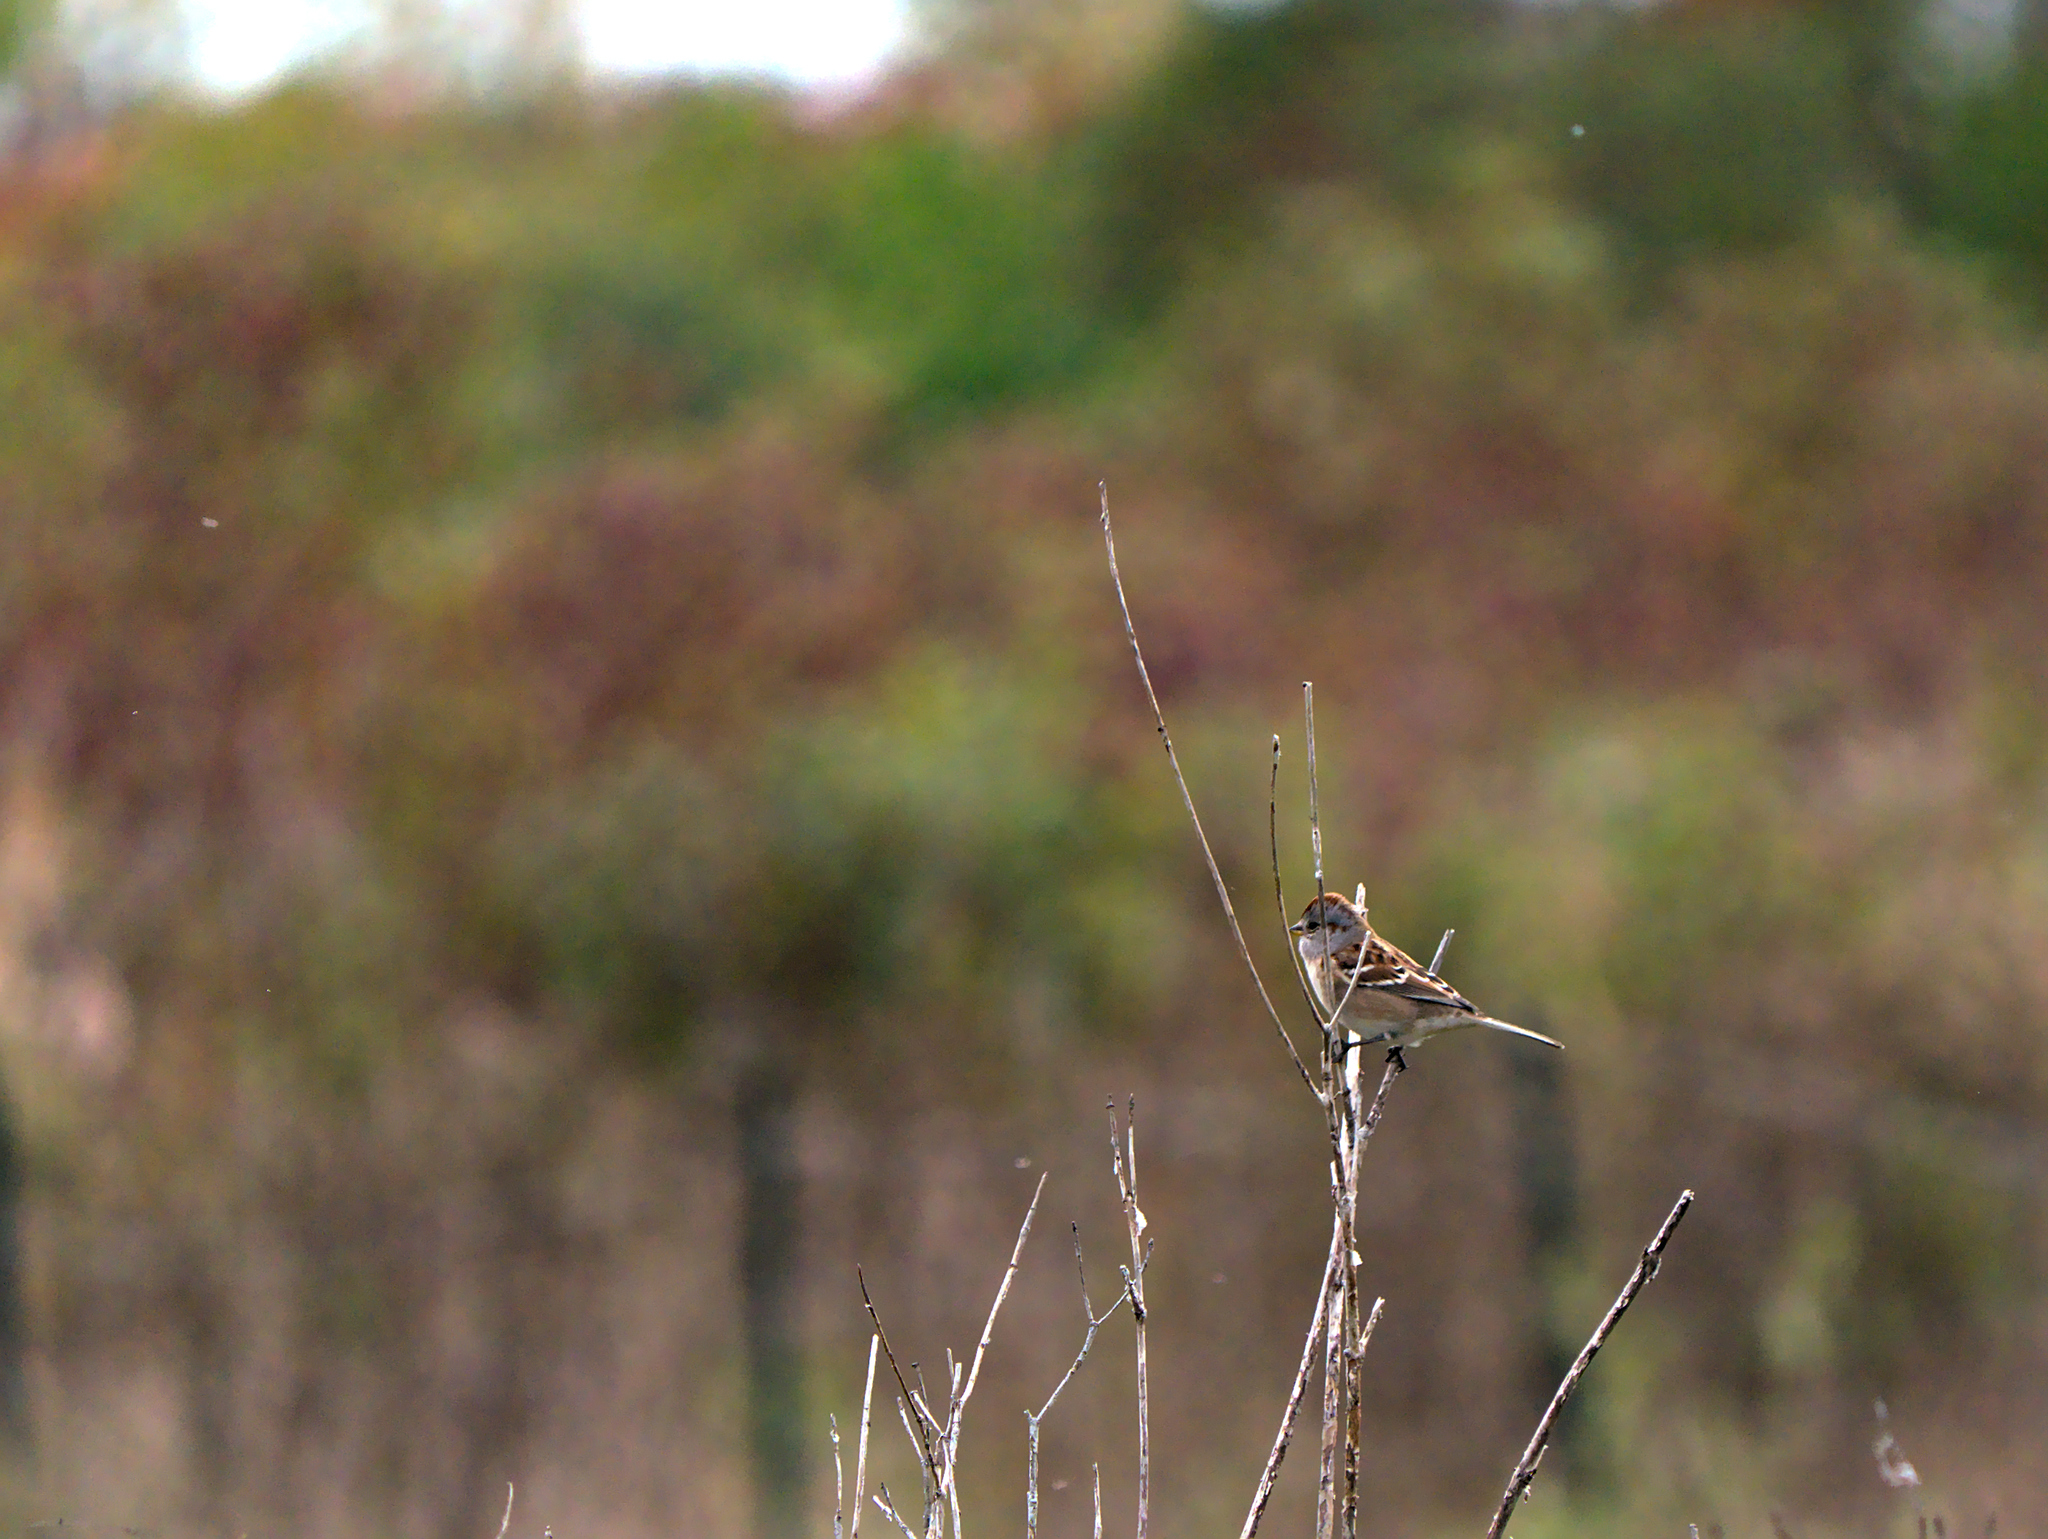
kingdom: Animalia
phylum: Chordata
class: Aves
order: Passeriformes
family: Passerellidae
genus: Spizelloides
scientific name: Spizelloides arborea
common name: American tree sparrow
